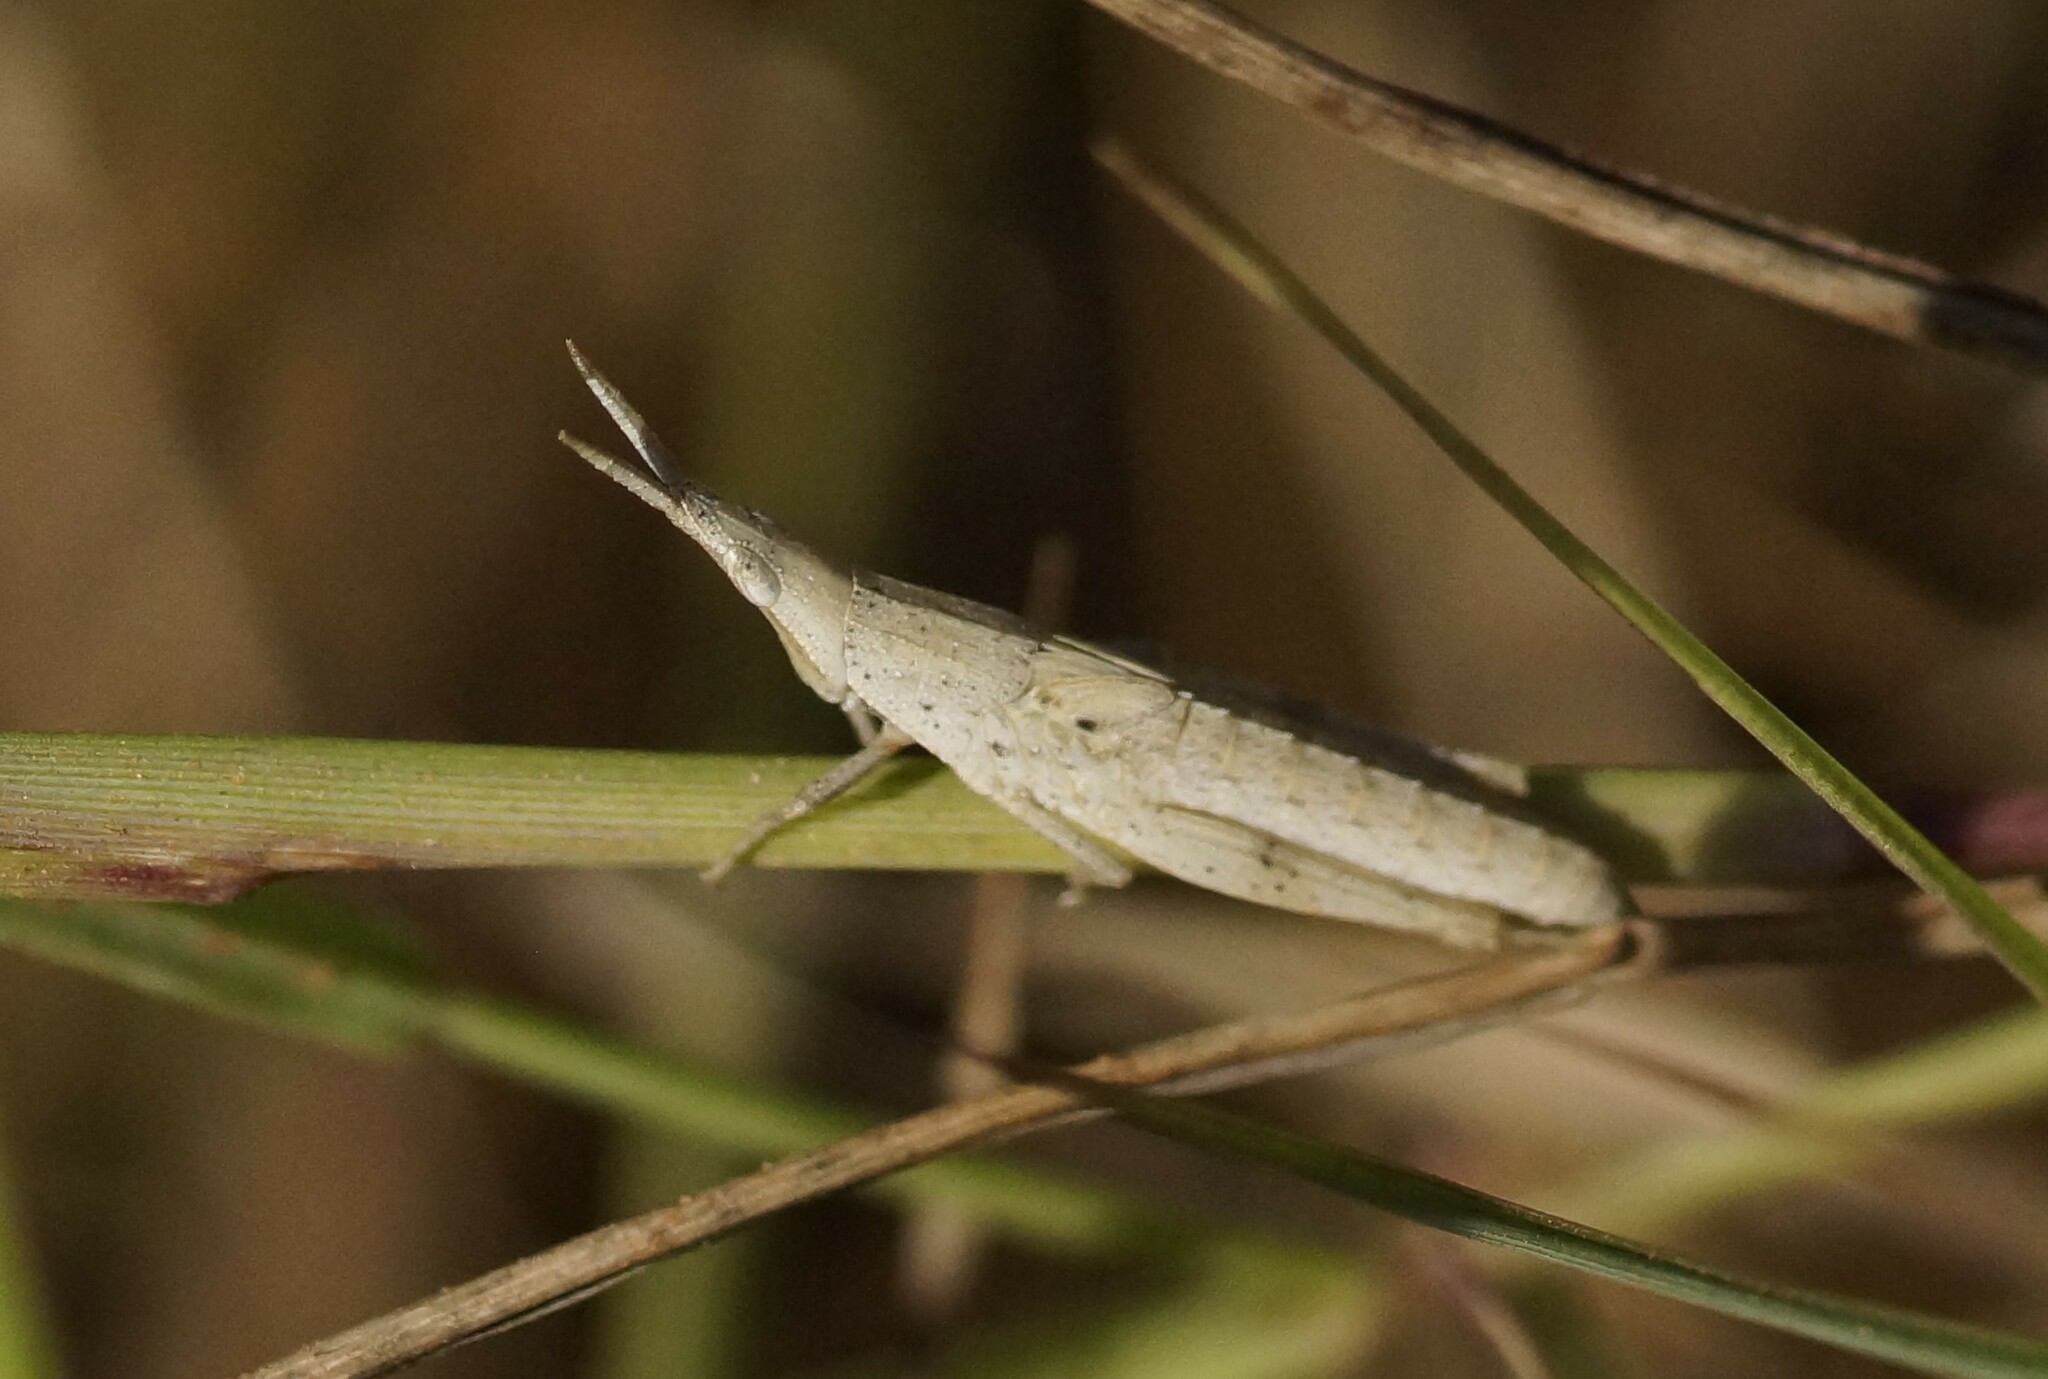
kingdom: Animalia
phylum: Arthropoda
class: Insecta
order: Orthoptera
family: Pyrgomorphidae
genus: Atractomorpha
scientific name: Atractomorpha similis
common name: Northern grass pyrgomorph
